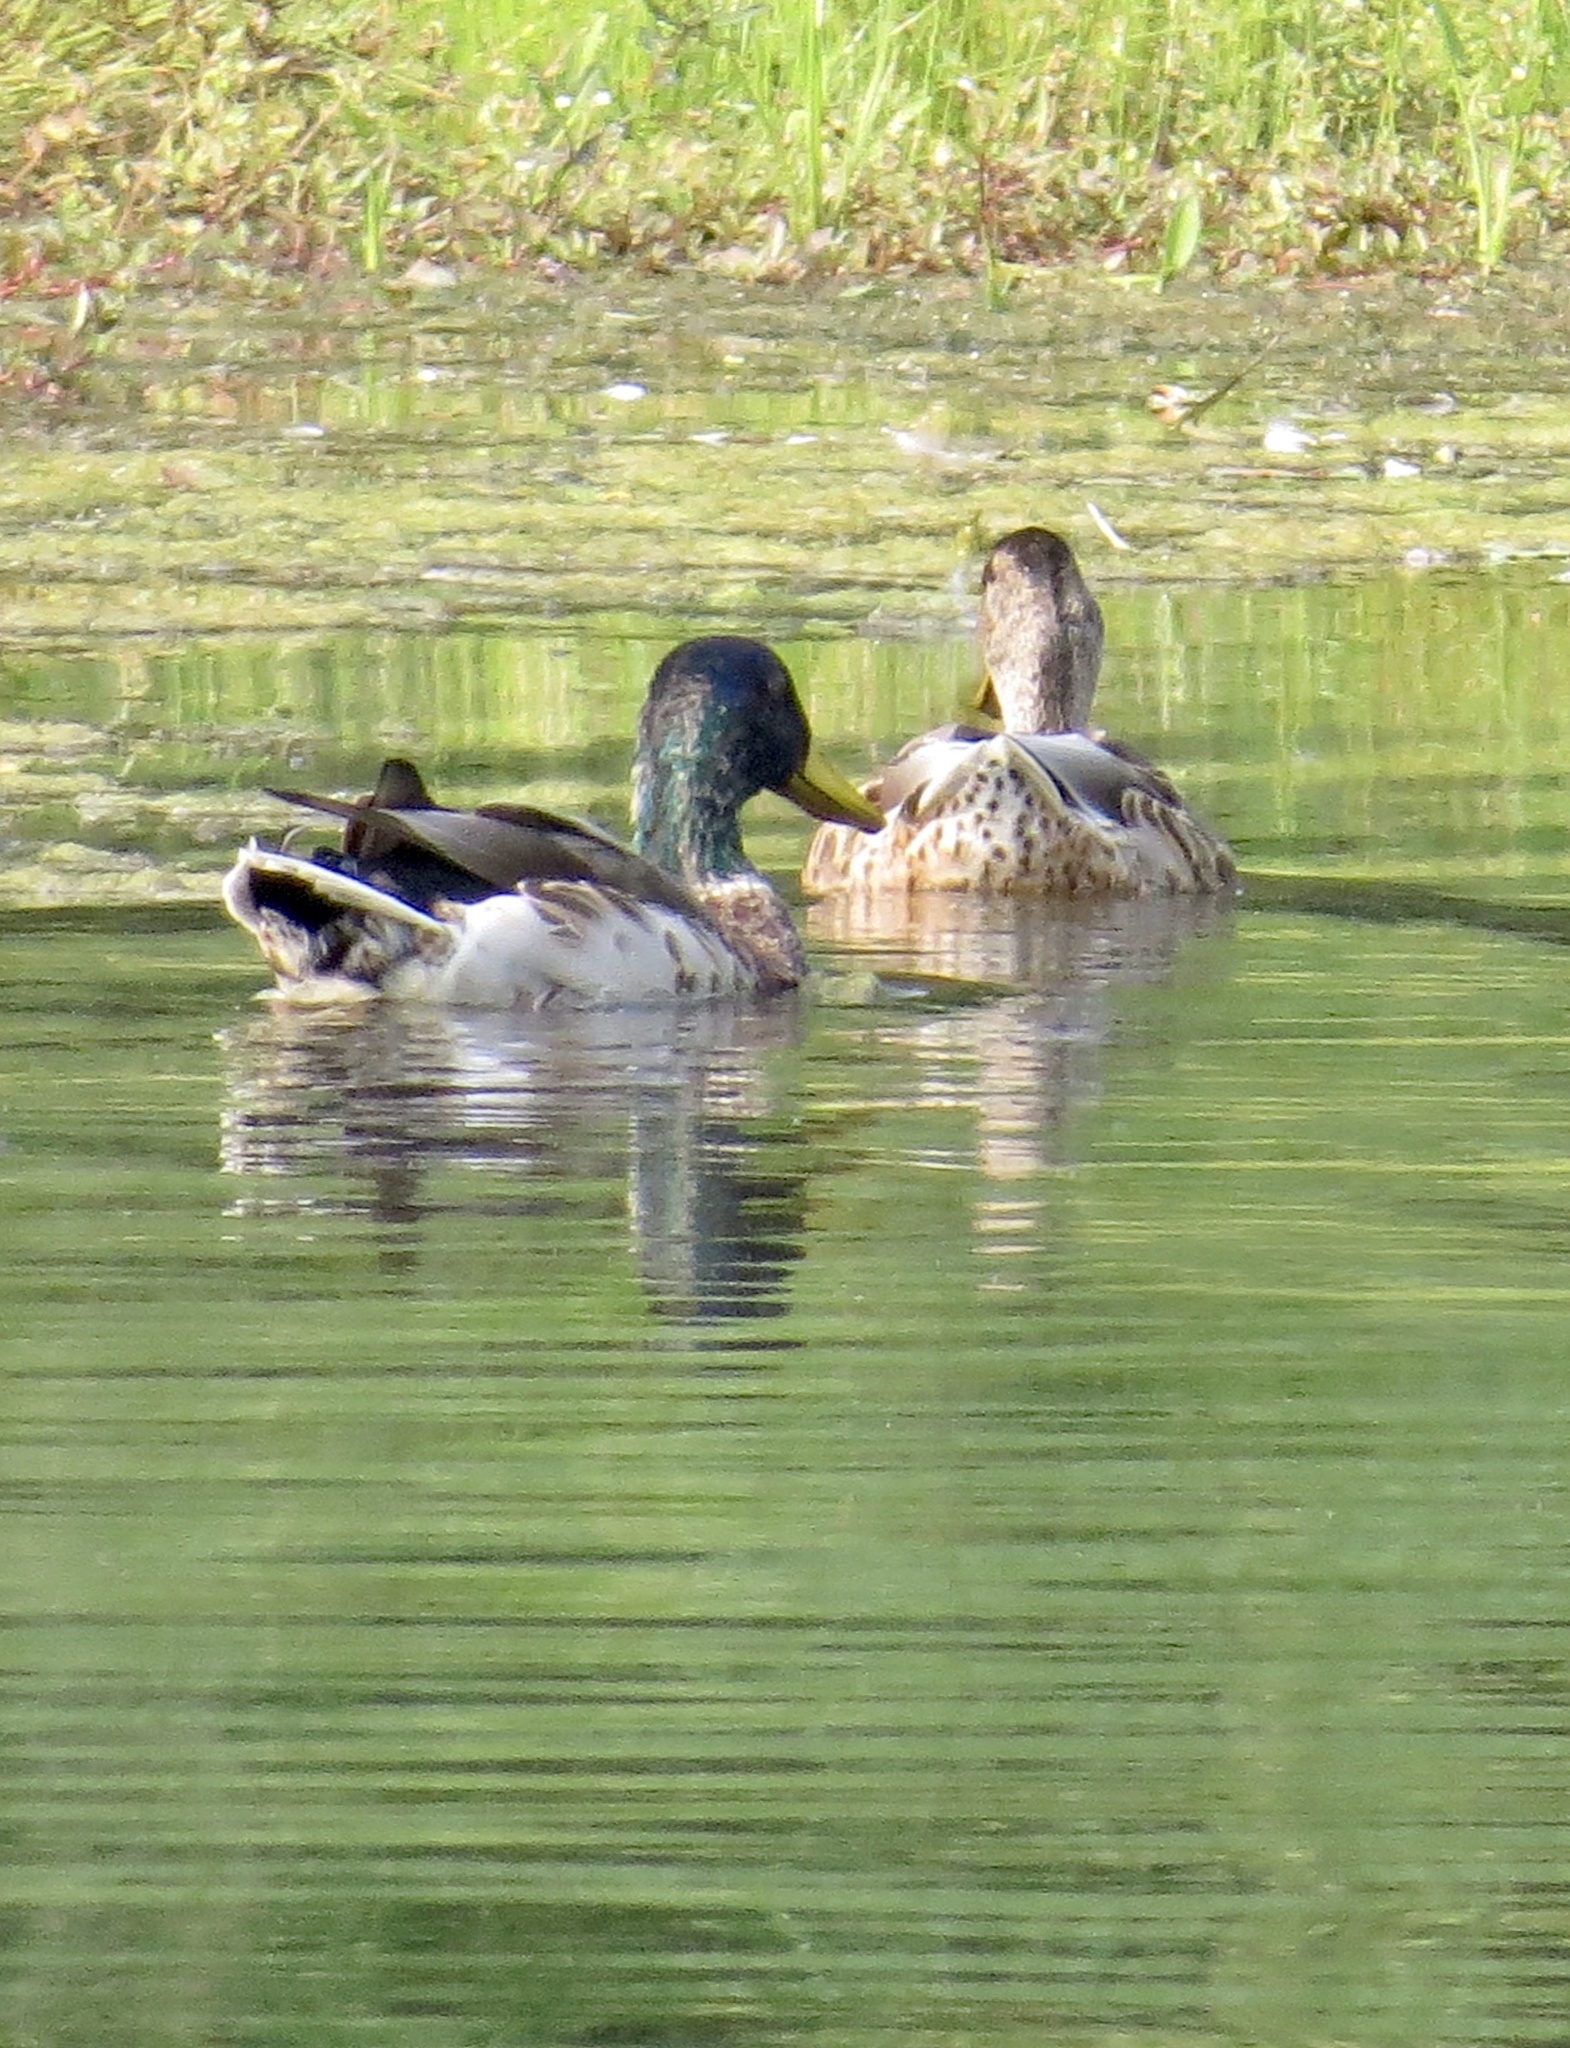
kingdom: Animalia
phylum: Chordata
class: Aves
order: Anseriformes
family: Anatidae
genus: Anas
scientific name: Anas platyrhynchos
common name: Mallard
